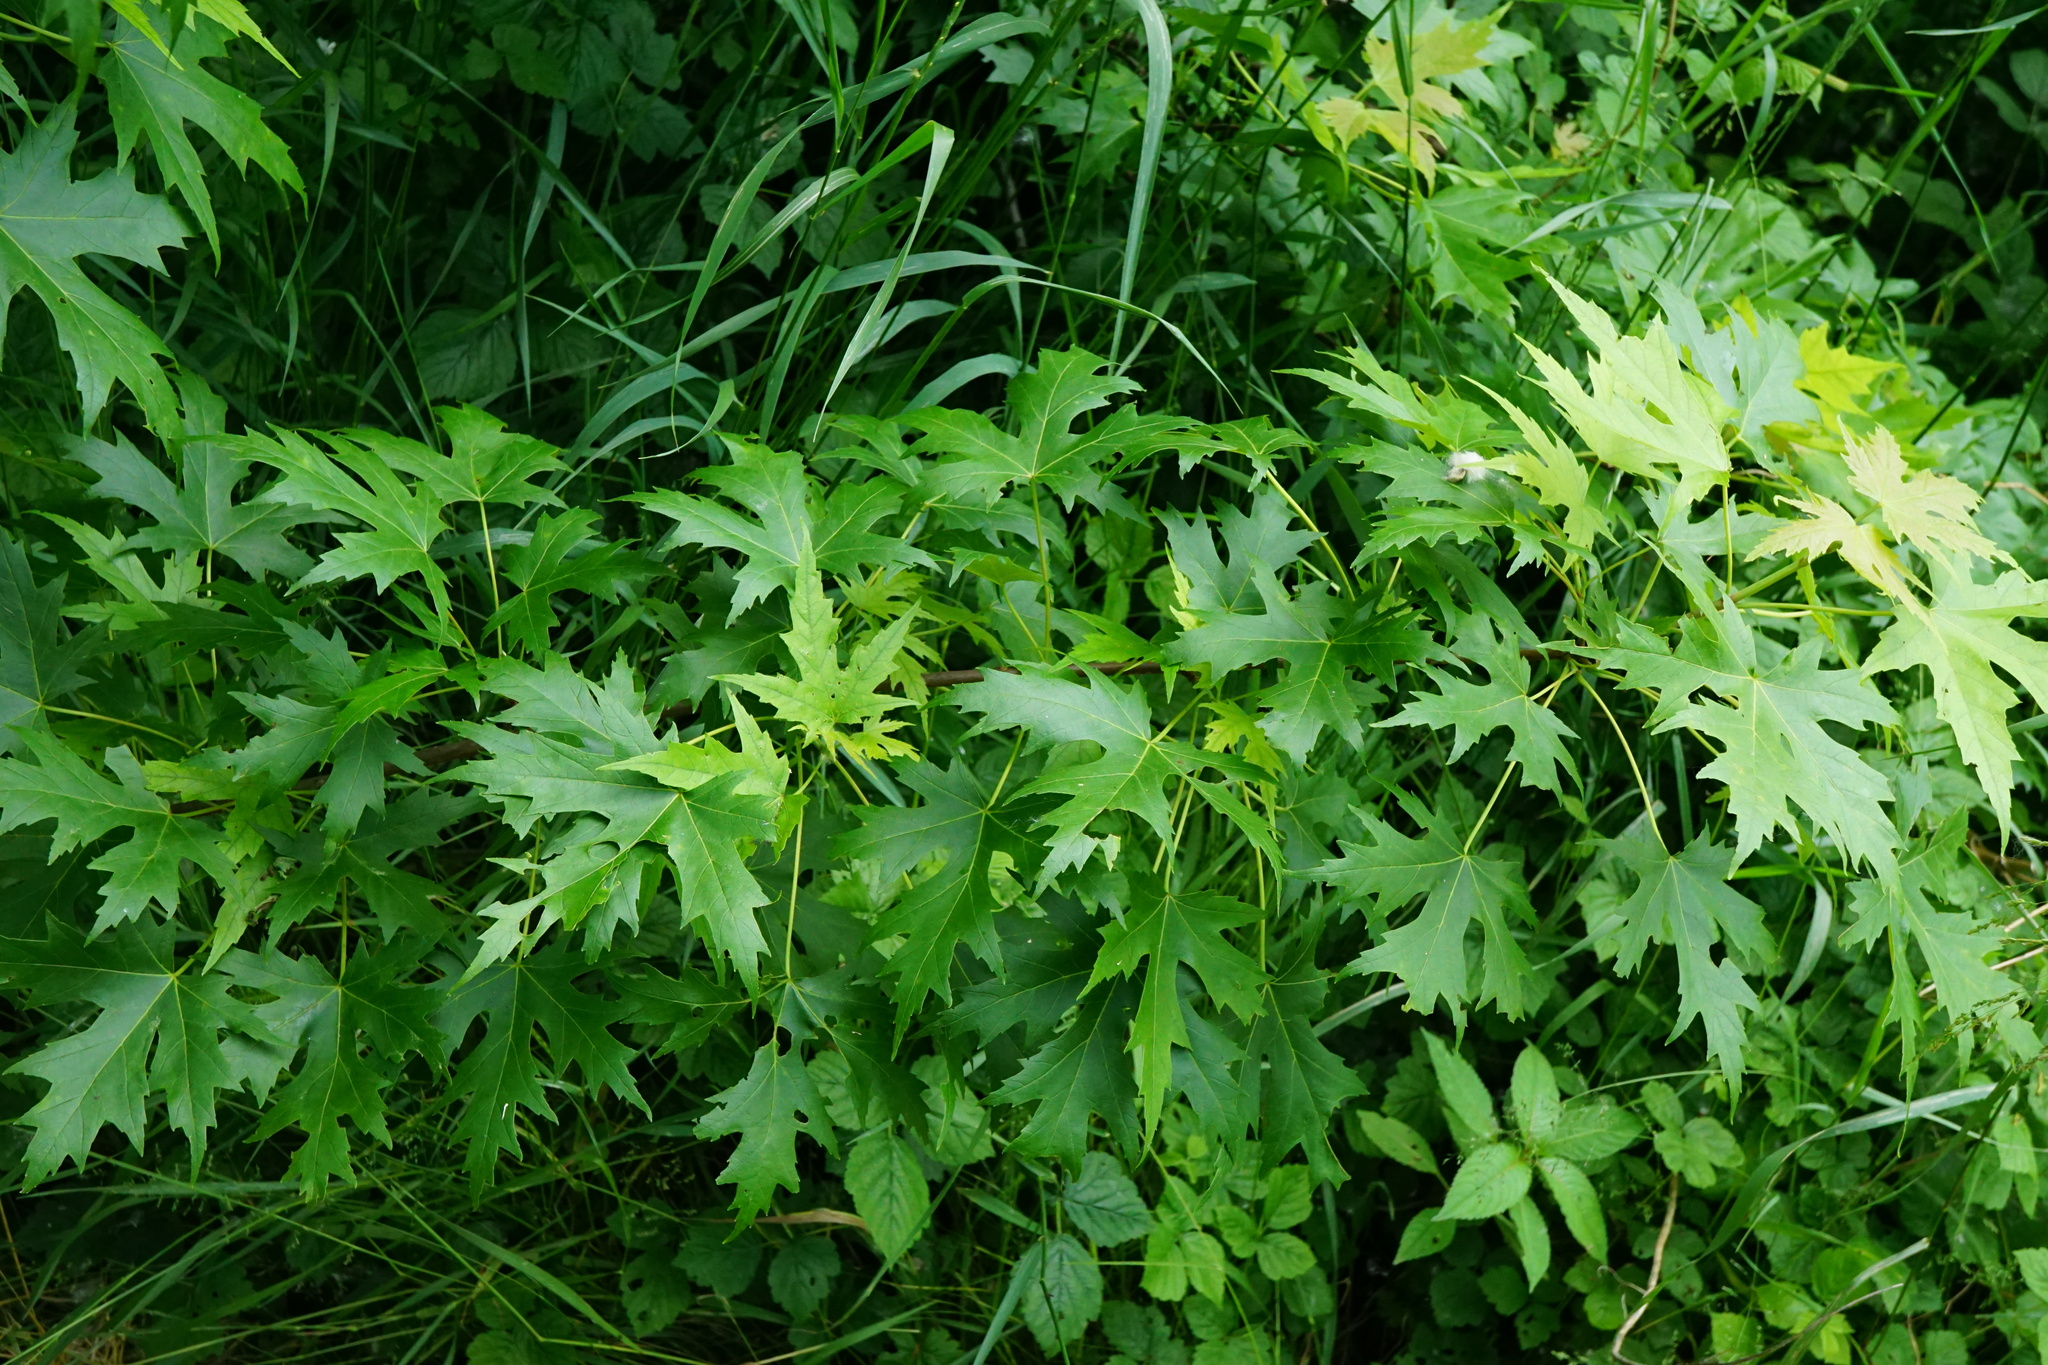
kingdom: Plantae
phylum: Tracheophyta
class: Magnoliopsida
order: Sapindales
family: Sapindaceae
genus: Acer
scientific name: Acer saccharinum
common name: Silver maple
